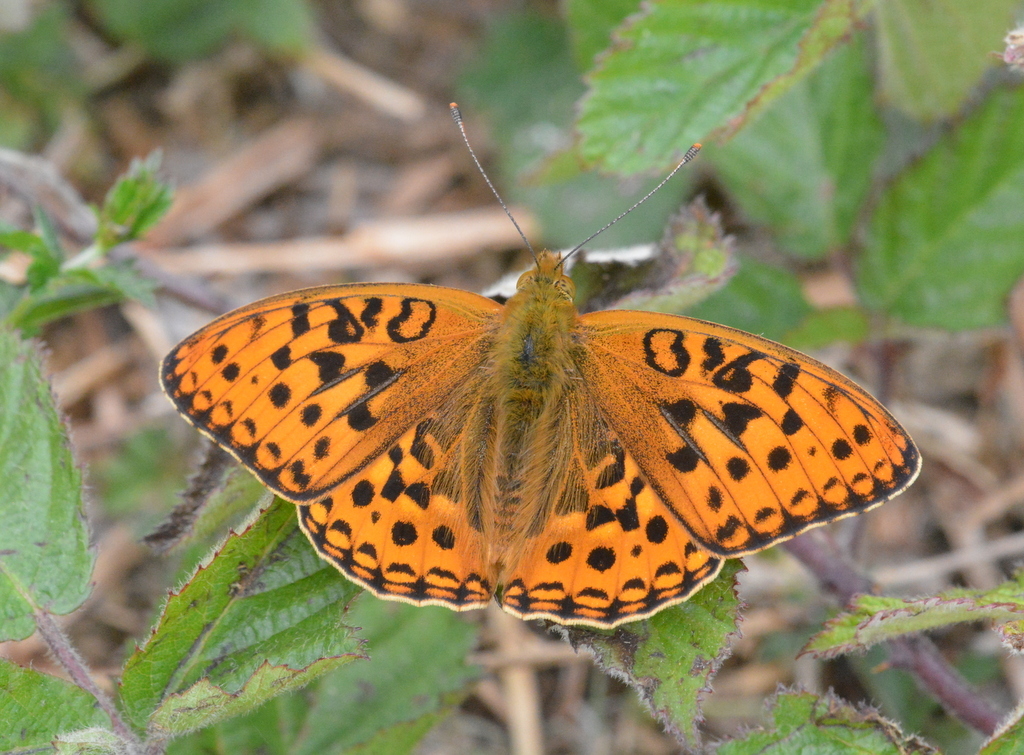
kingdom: Animalia
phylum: Arthropoda
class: Insecta
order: Lepidoptera
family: Nymphalidae
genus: Fabriciana
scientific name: Fabriciana adippe
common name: High brown fritillary
